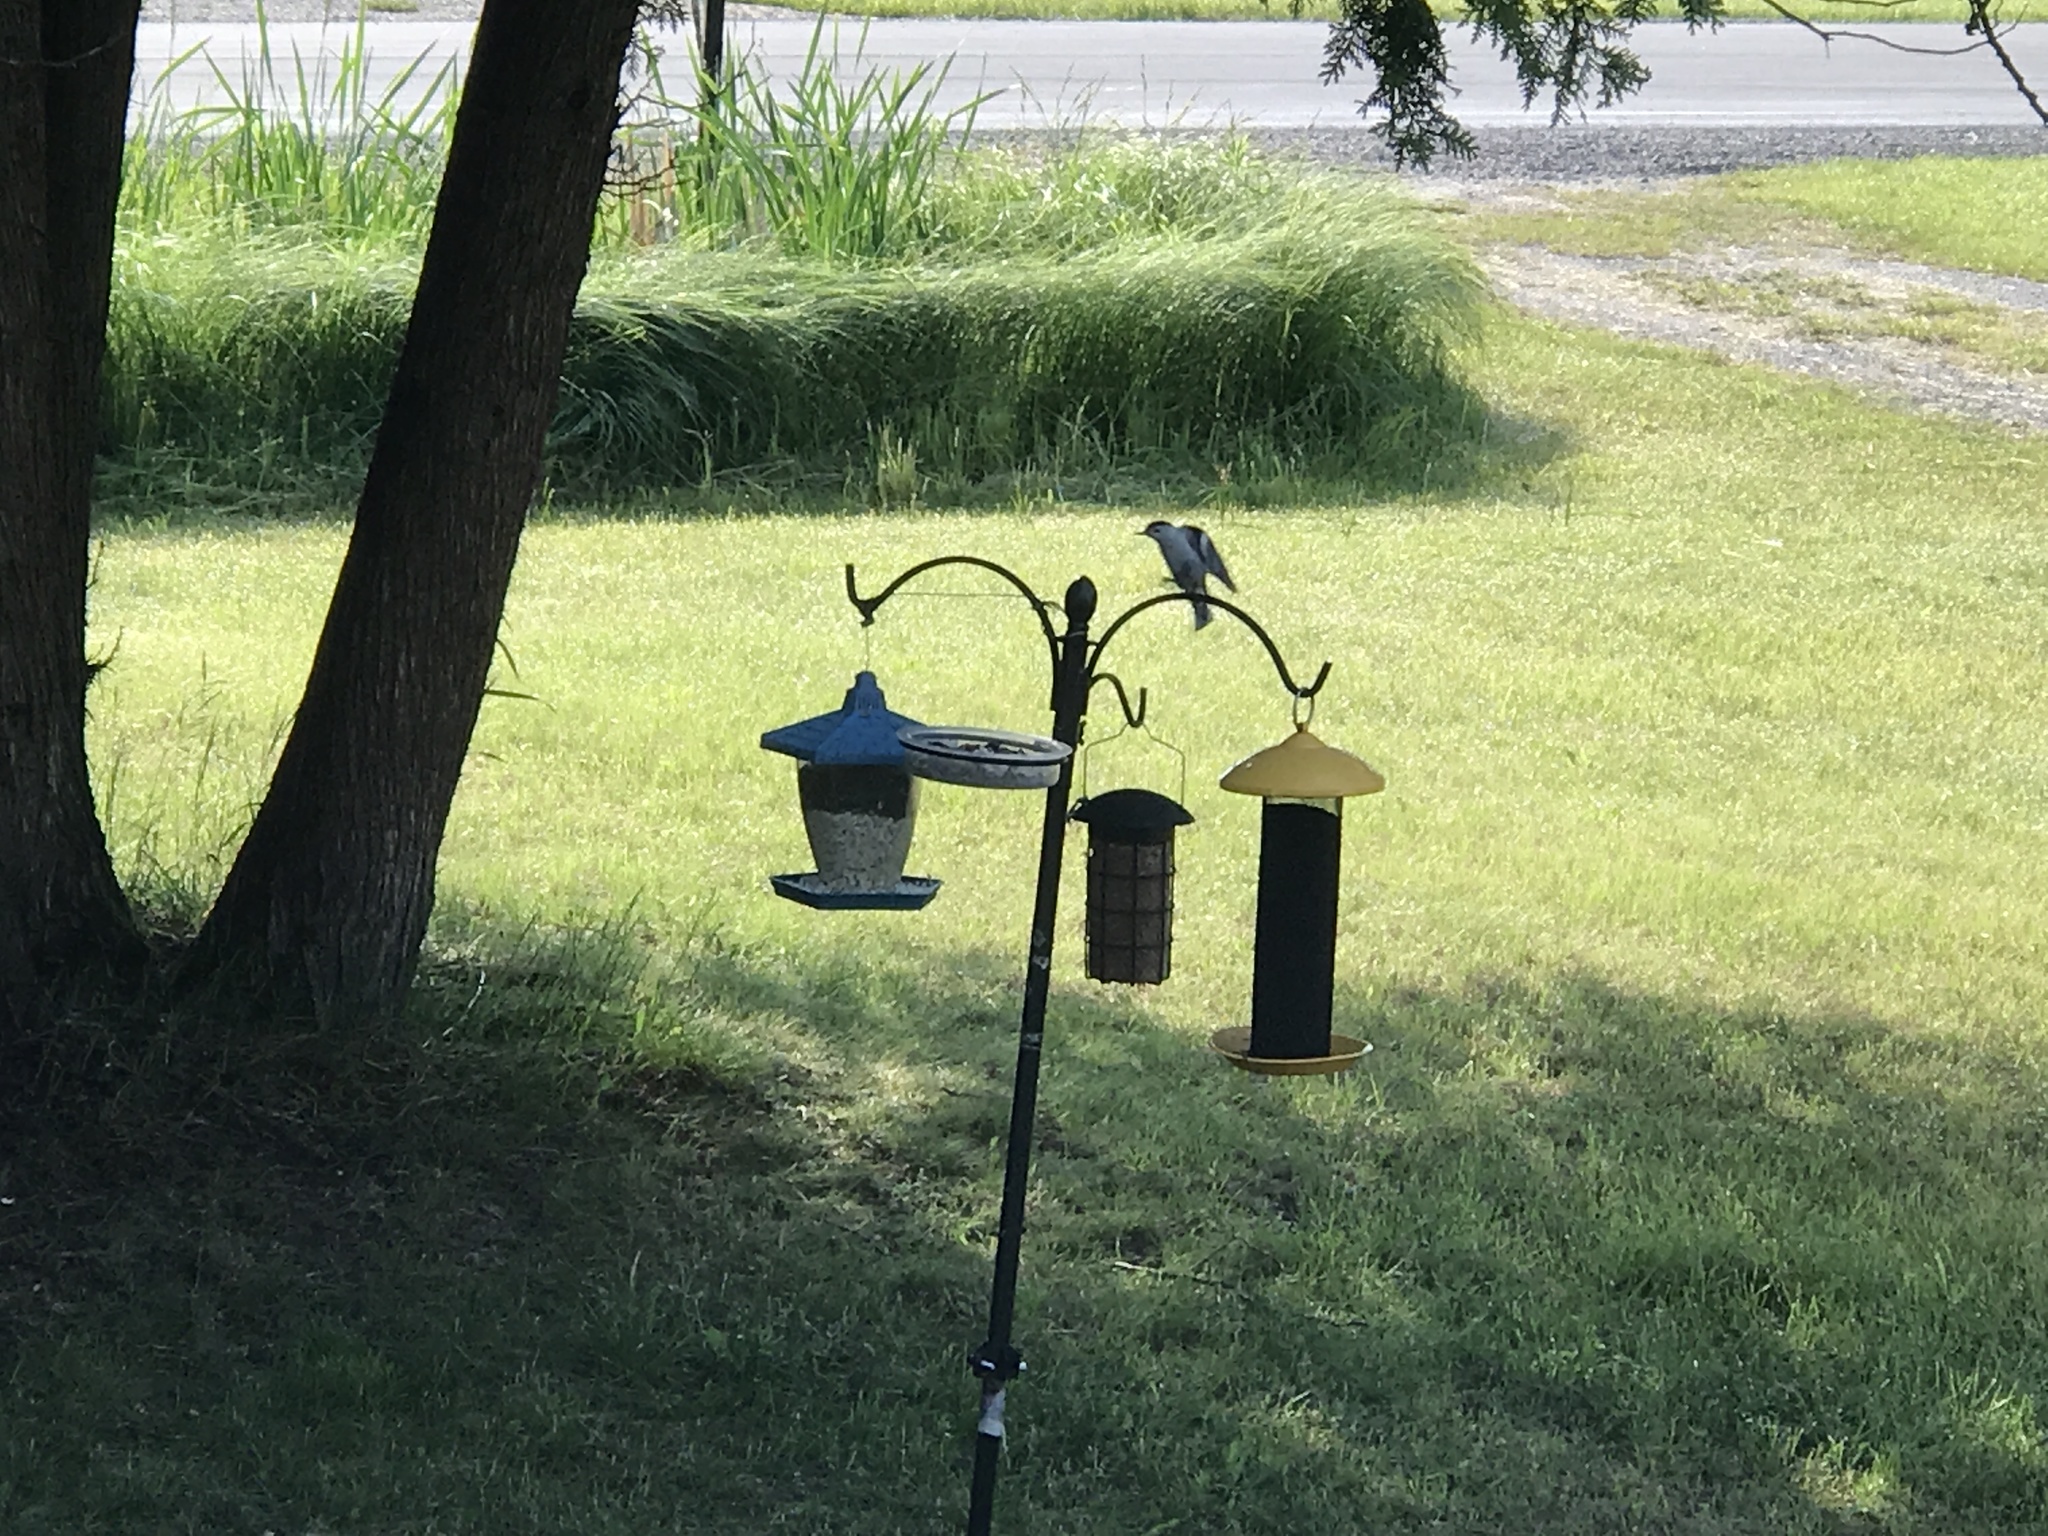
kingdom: Animalia
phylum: Chordata
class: Aves
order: Passeriformes
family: Sittidae
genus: Sitta
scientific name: Sitta carolinensis
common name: White-breasted nuthatch
